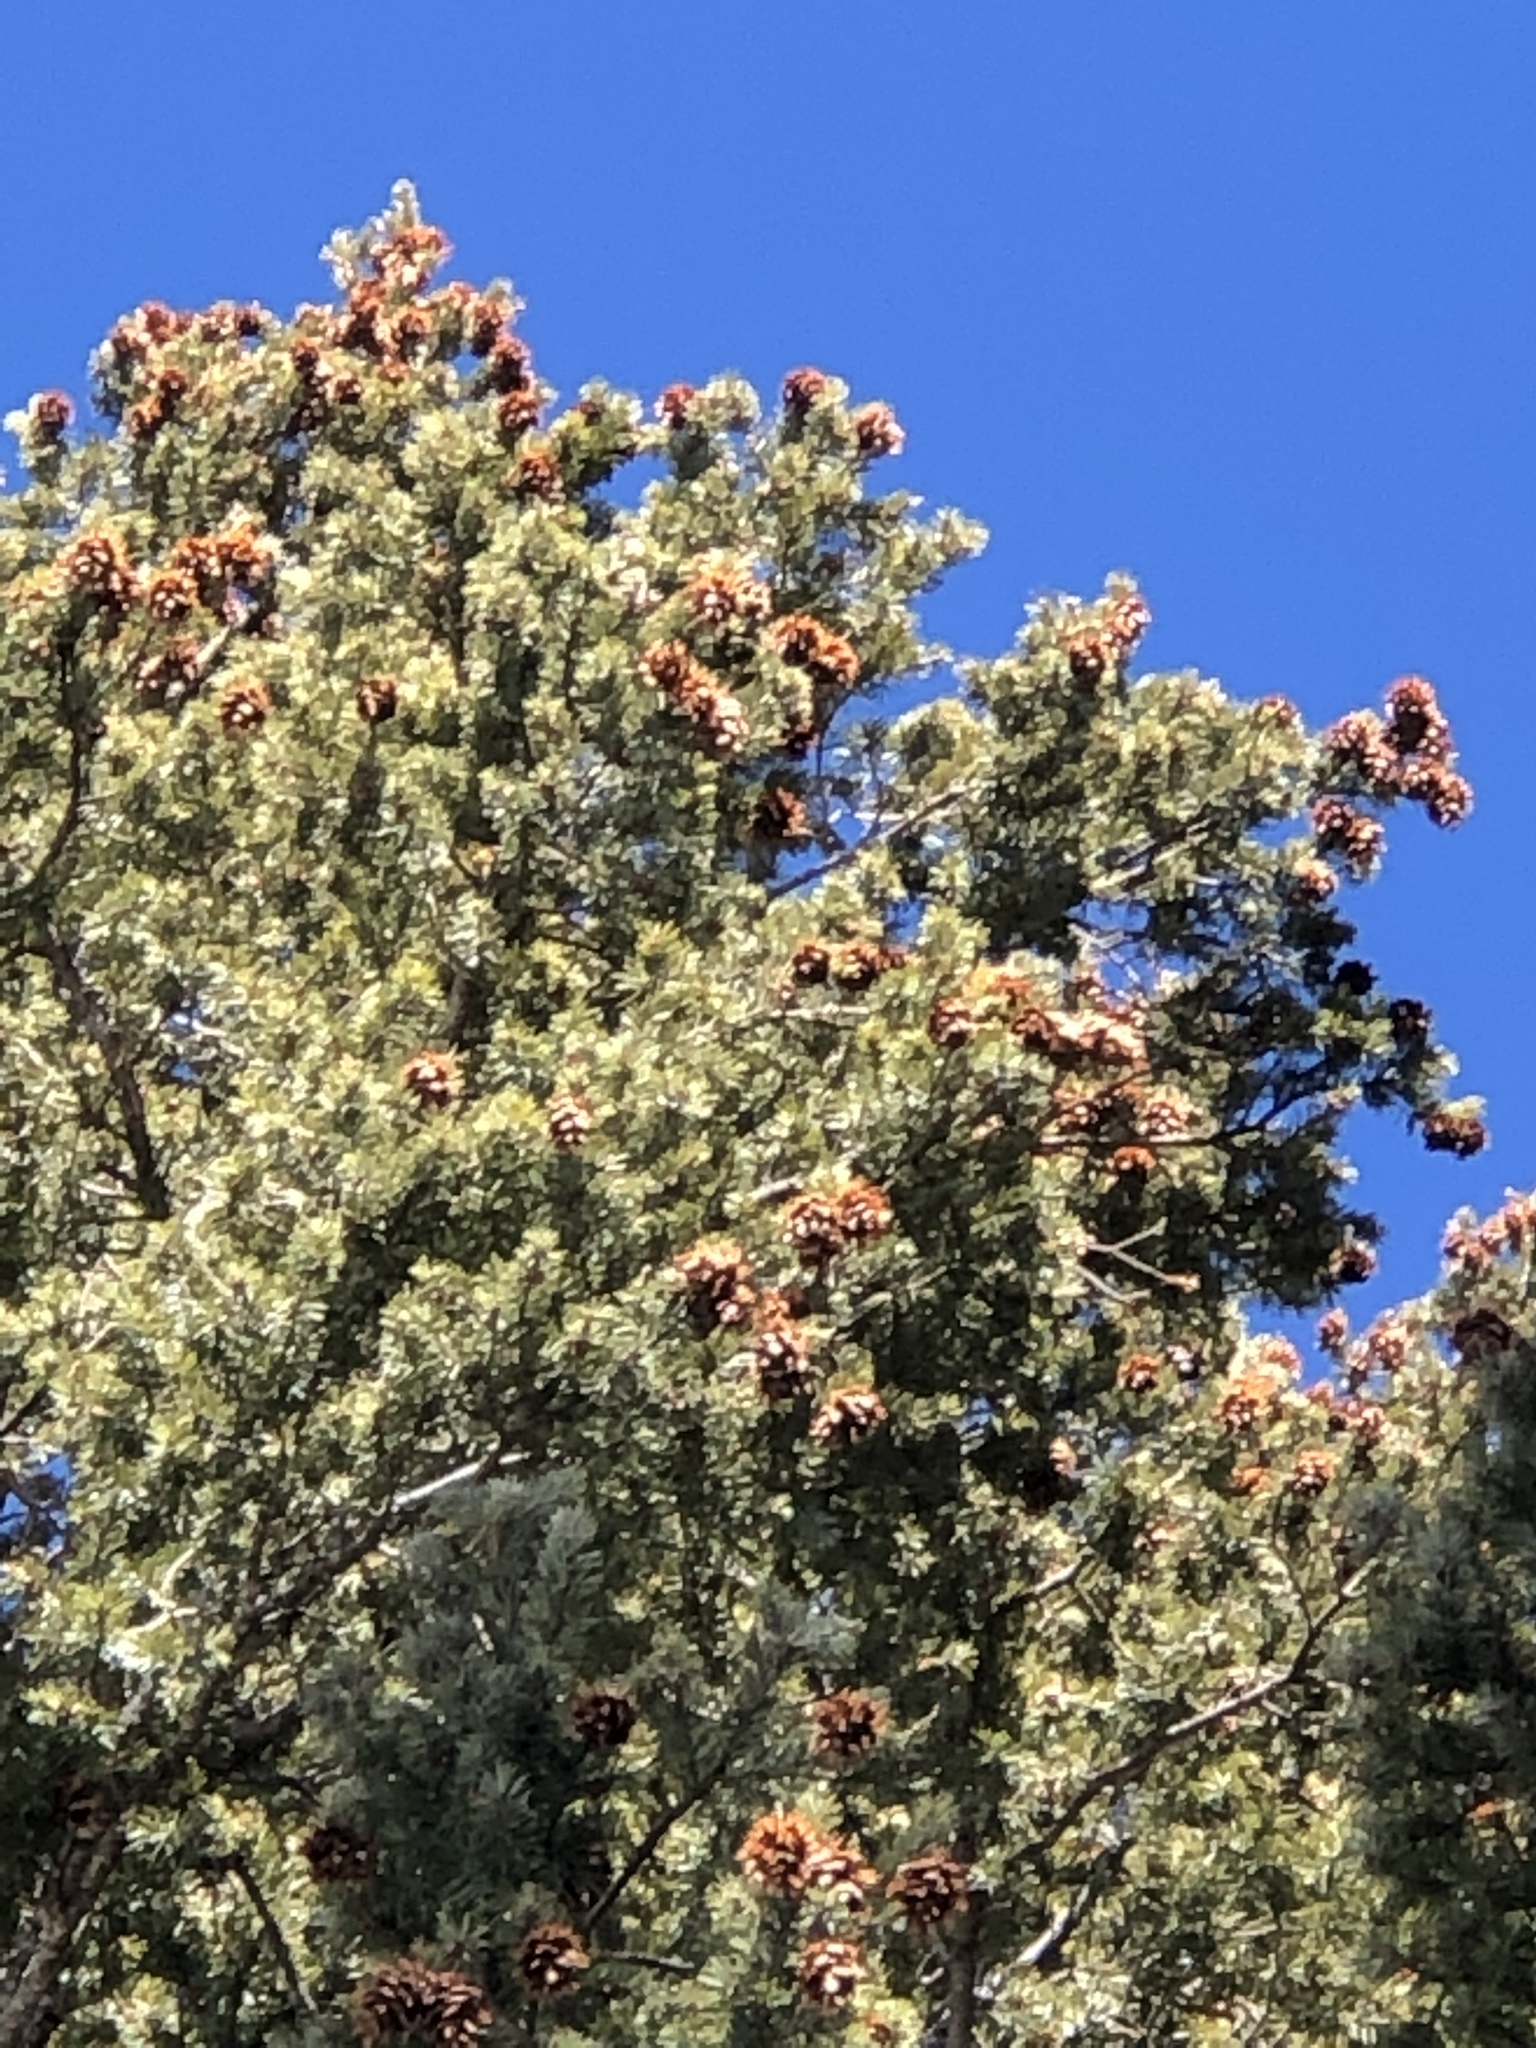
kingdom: Plantae
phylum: Tracheophyta
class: Pinopsida
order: Pinales
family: Pinaceae
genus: Pseudotsuga
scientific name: Pseudotsuga menziesii
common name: Douglas fir
